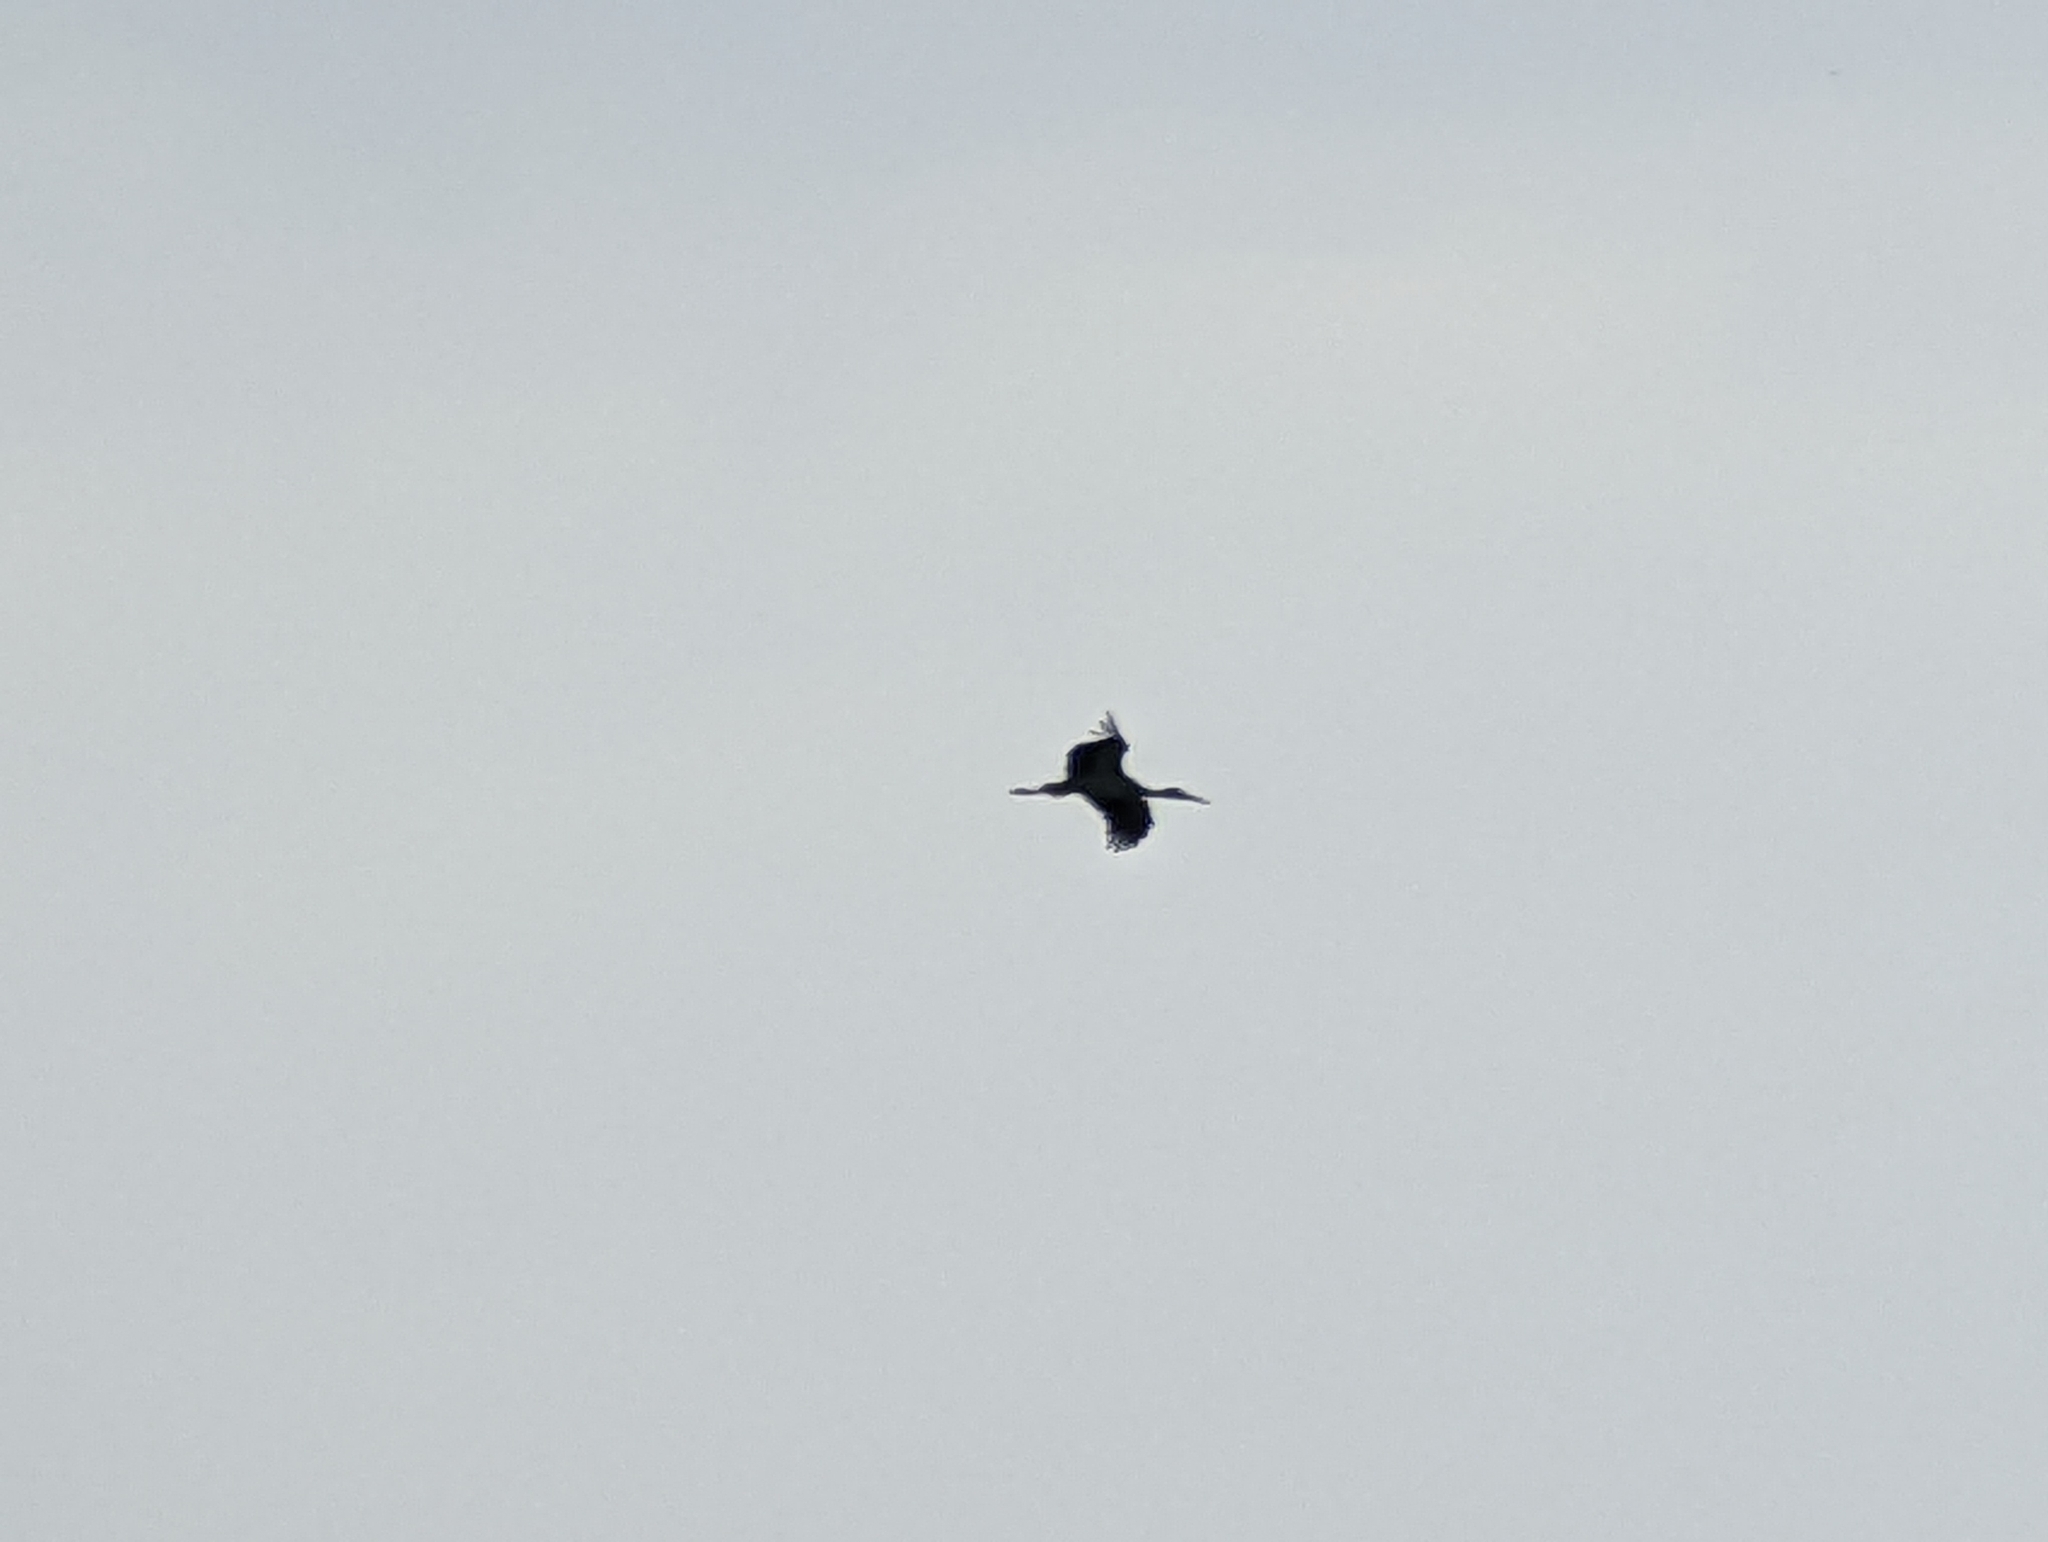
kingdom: Animalia
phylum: Chordata
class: Aves
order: Ciconiiformes
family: Ciconiidae
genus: Ciconia
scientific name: Ciconia ciconia
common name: White stork
